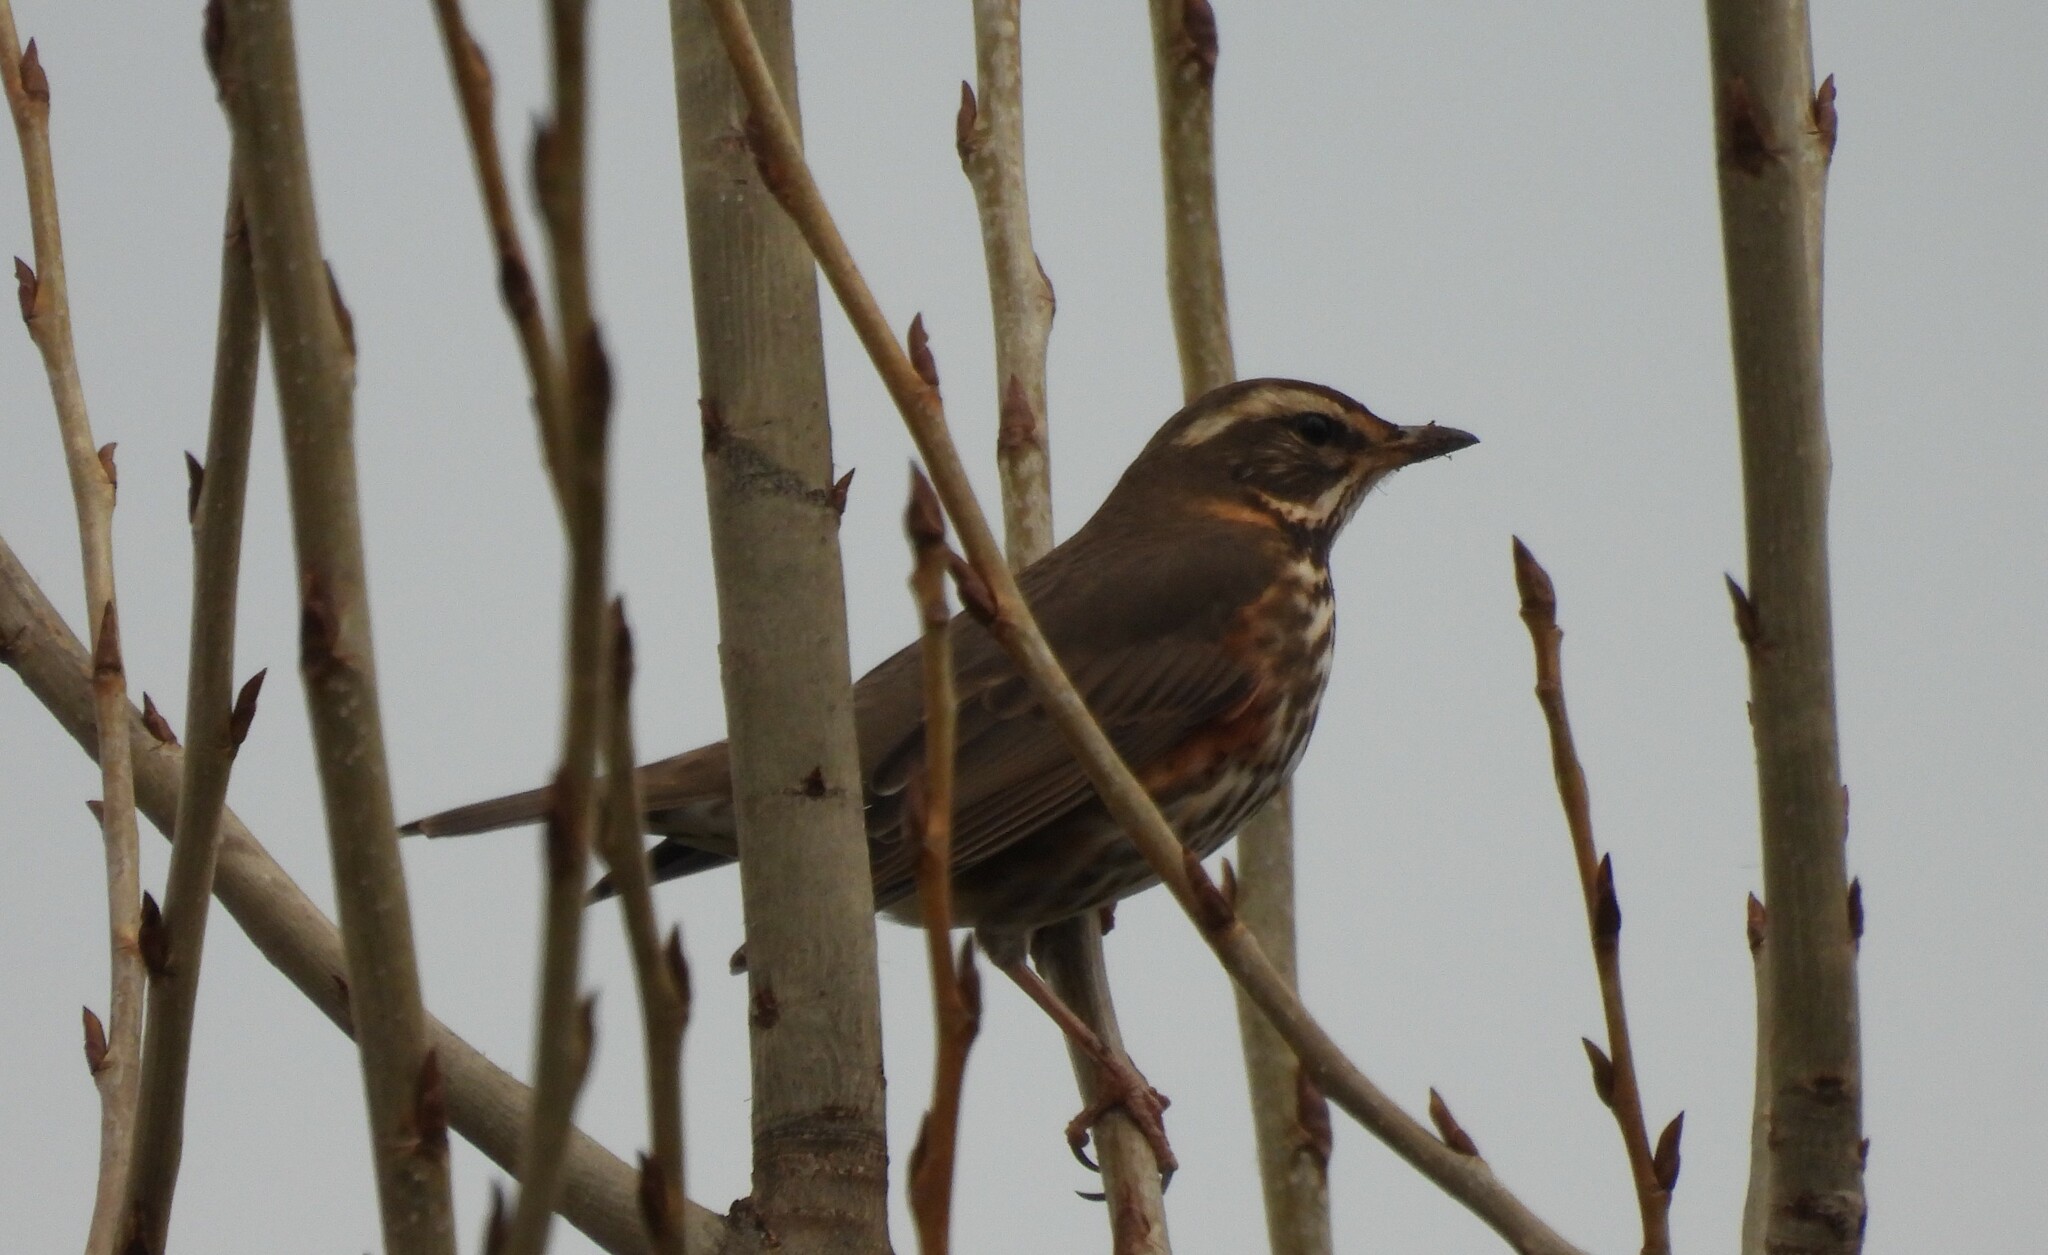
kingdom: Animalia
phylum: Chordata
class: Aves
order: Passeriformes
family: Turdidae
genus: Turdus
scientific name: Turdus iliacus
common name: Redwing
